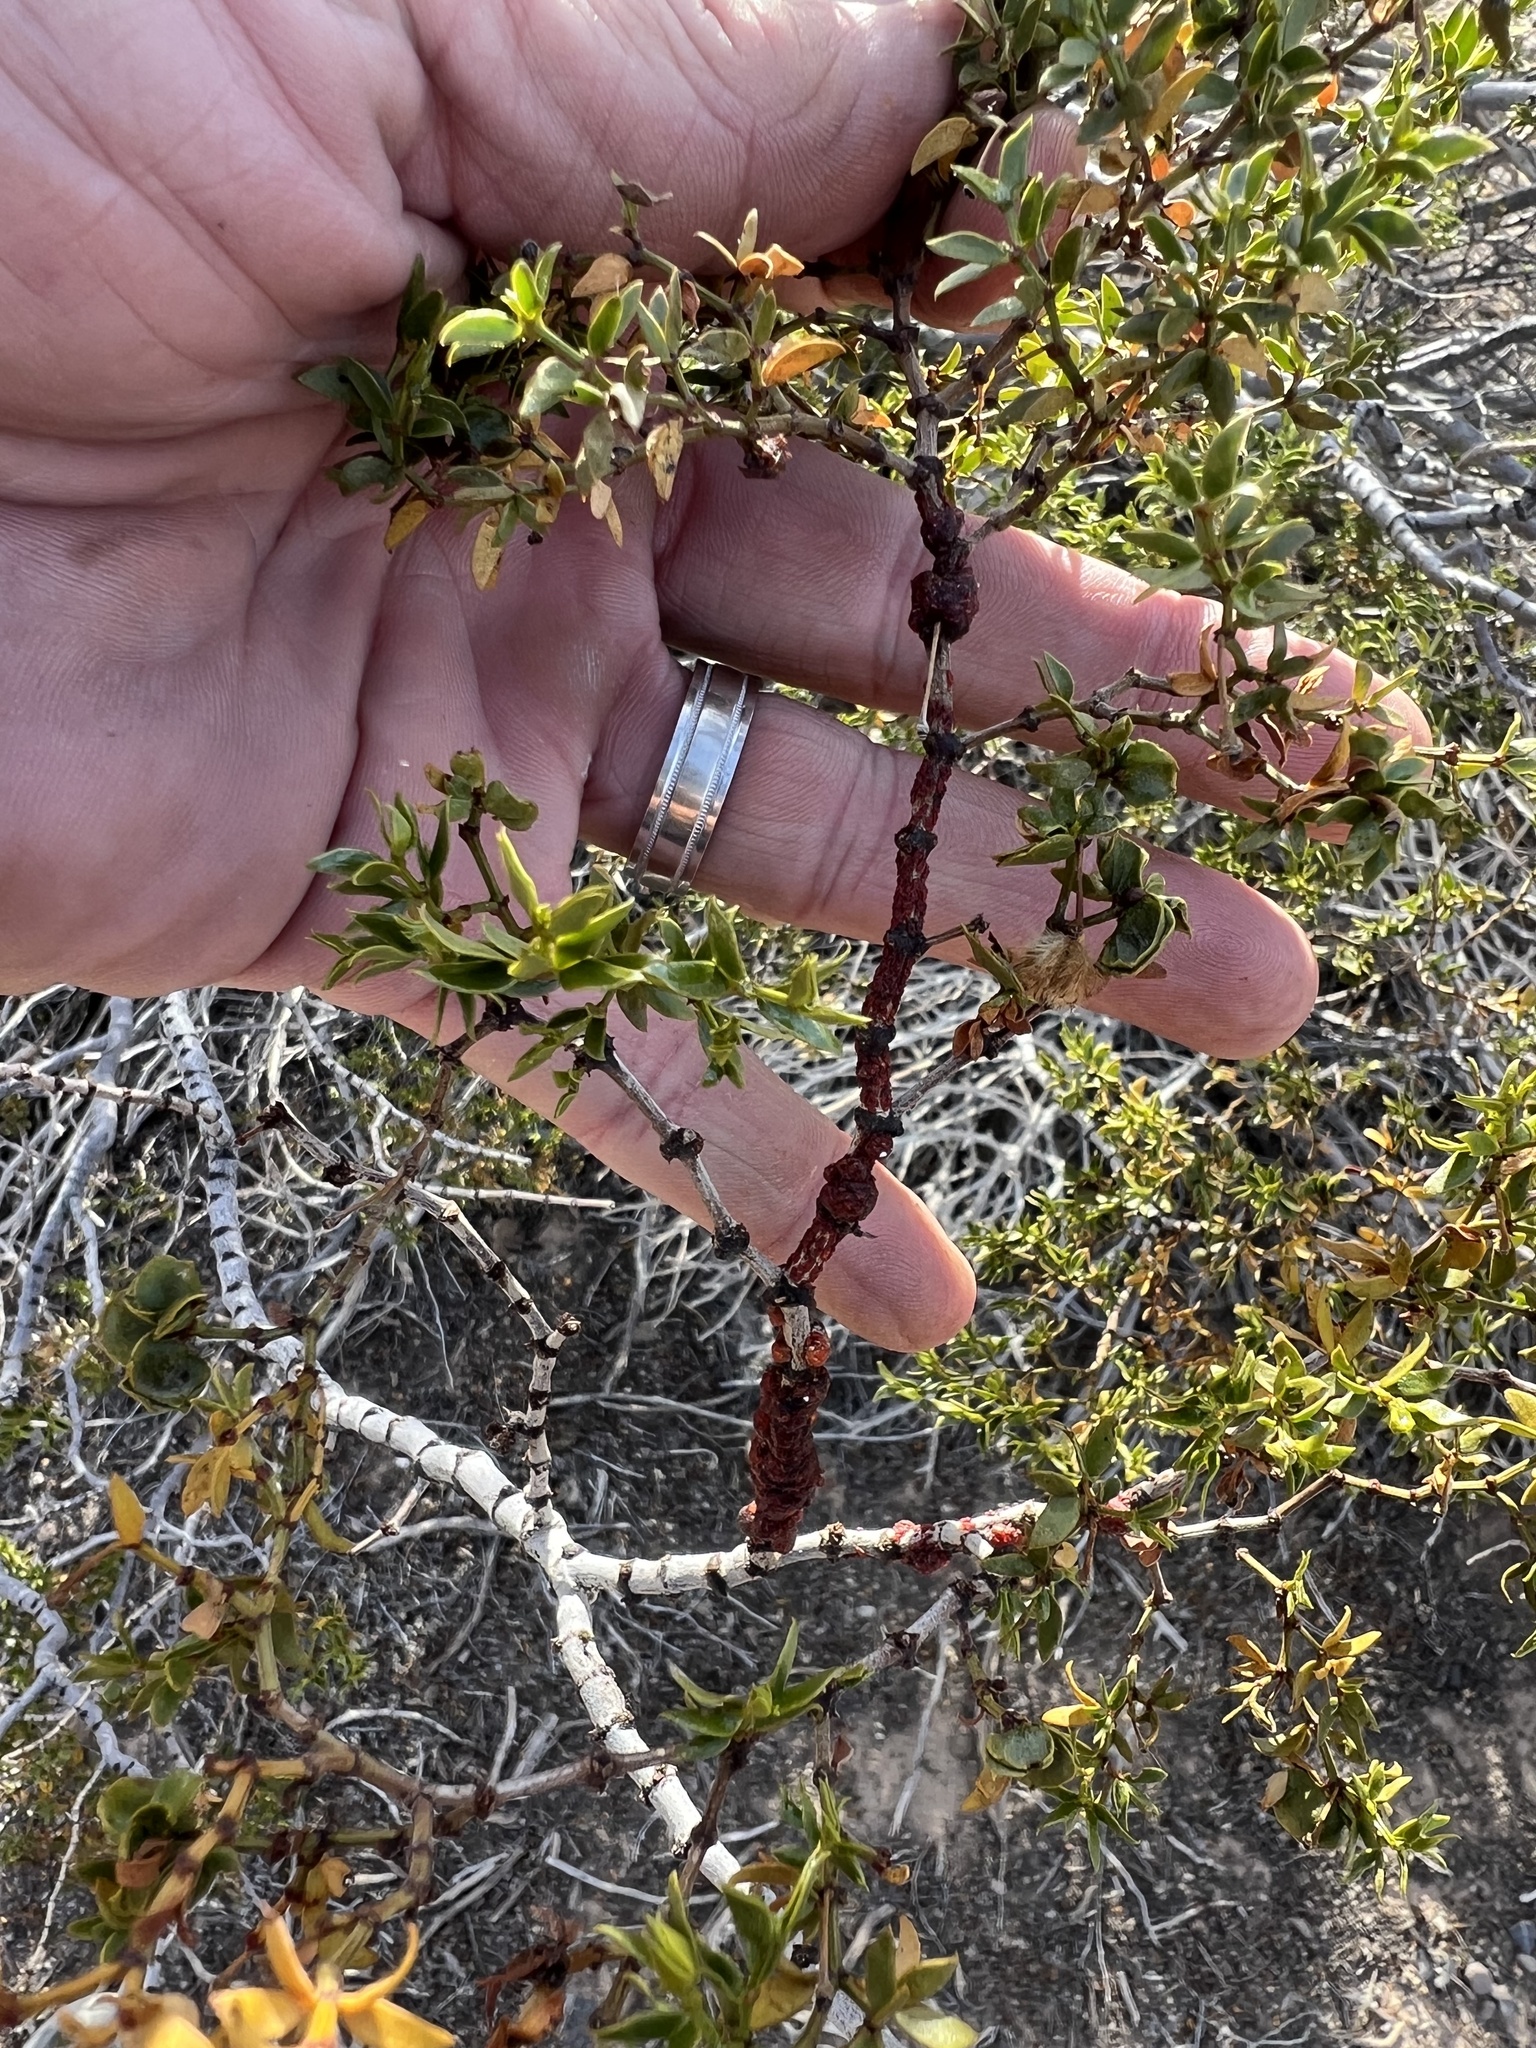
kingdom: Animalia
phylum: Arthropoda
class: Insecta
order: Hemiptera
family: Kerriidae
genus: Tachardiella
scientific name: Tachardiella larreae
